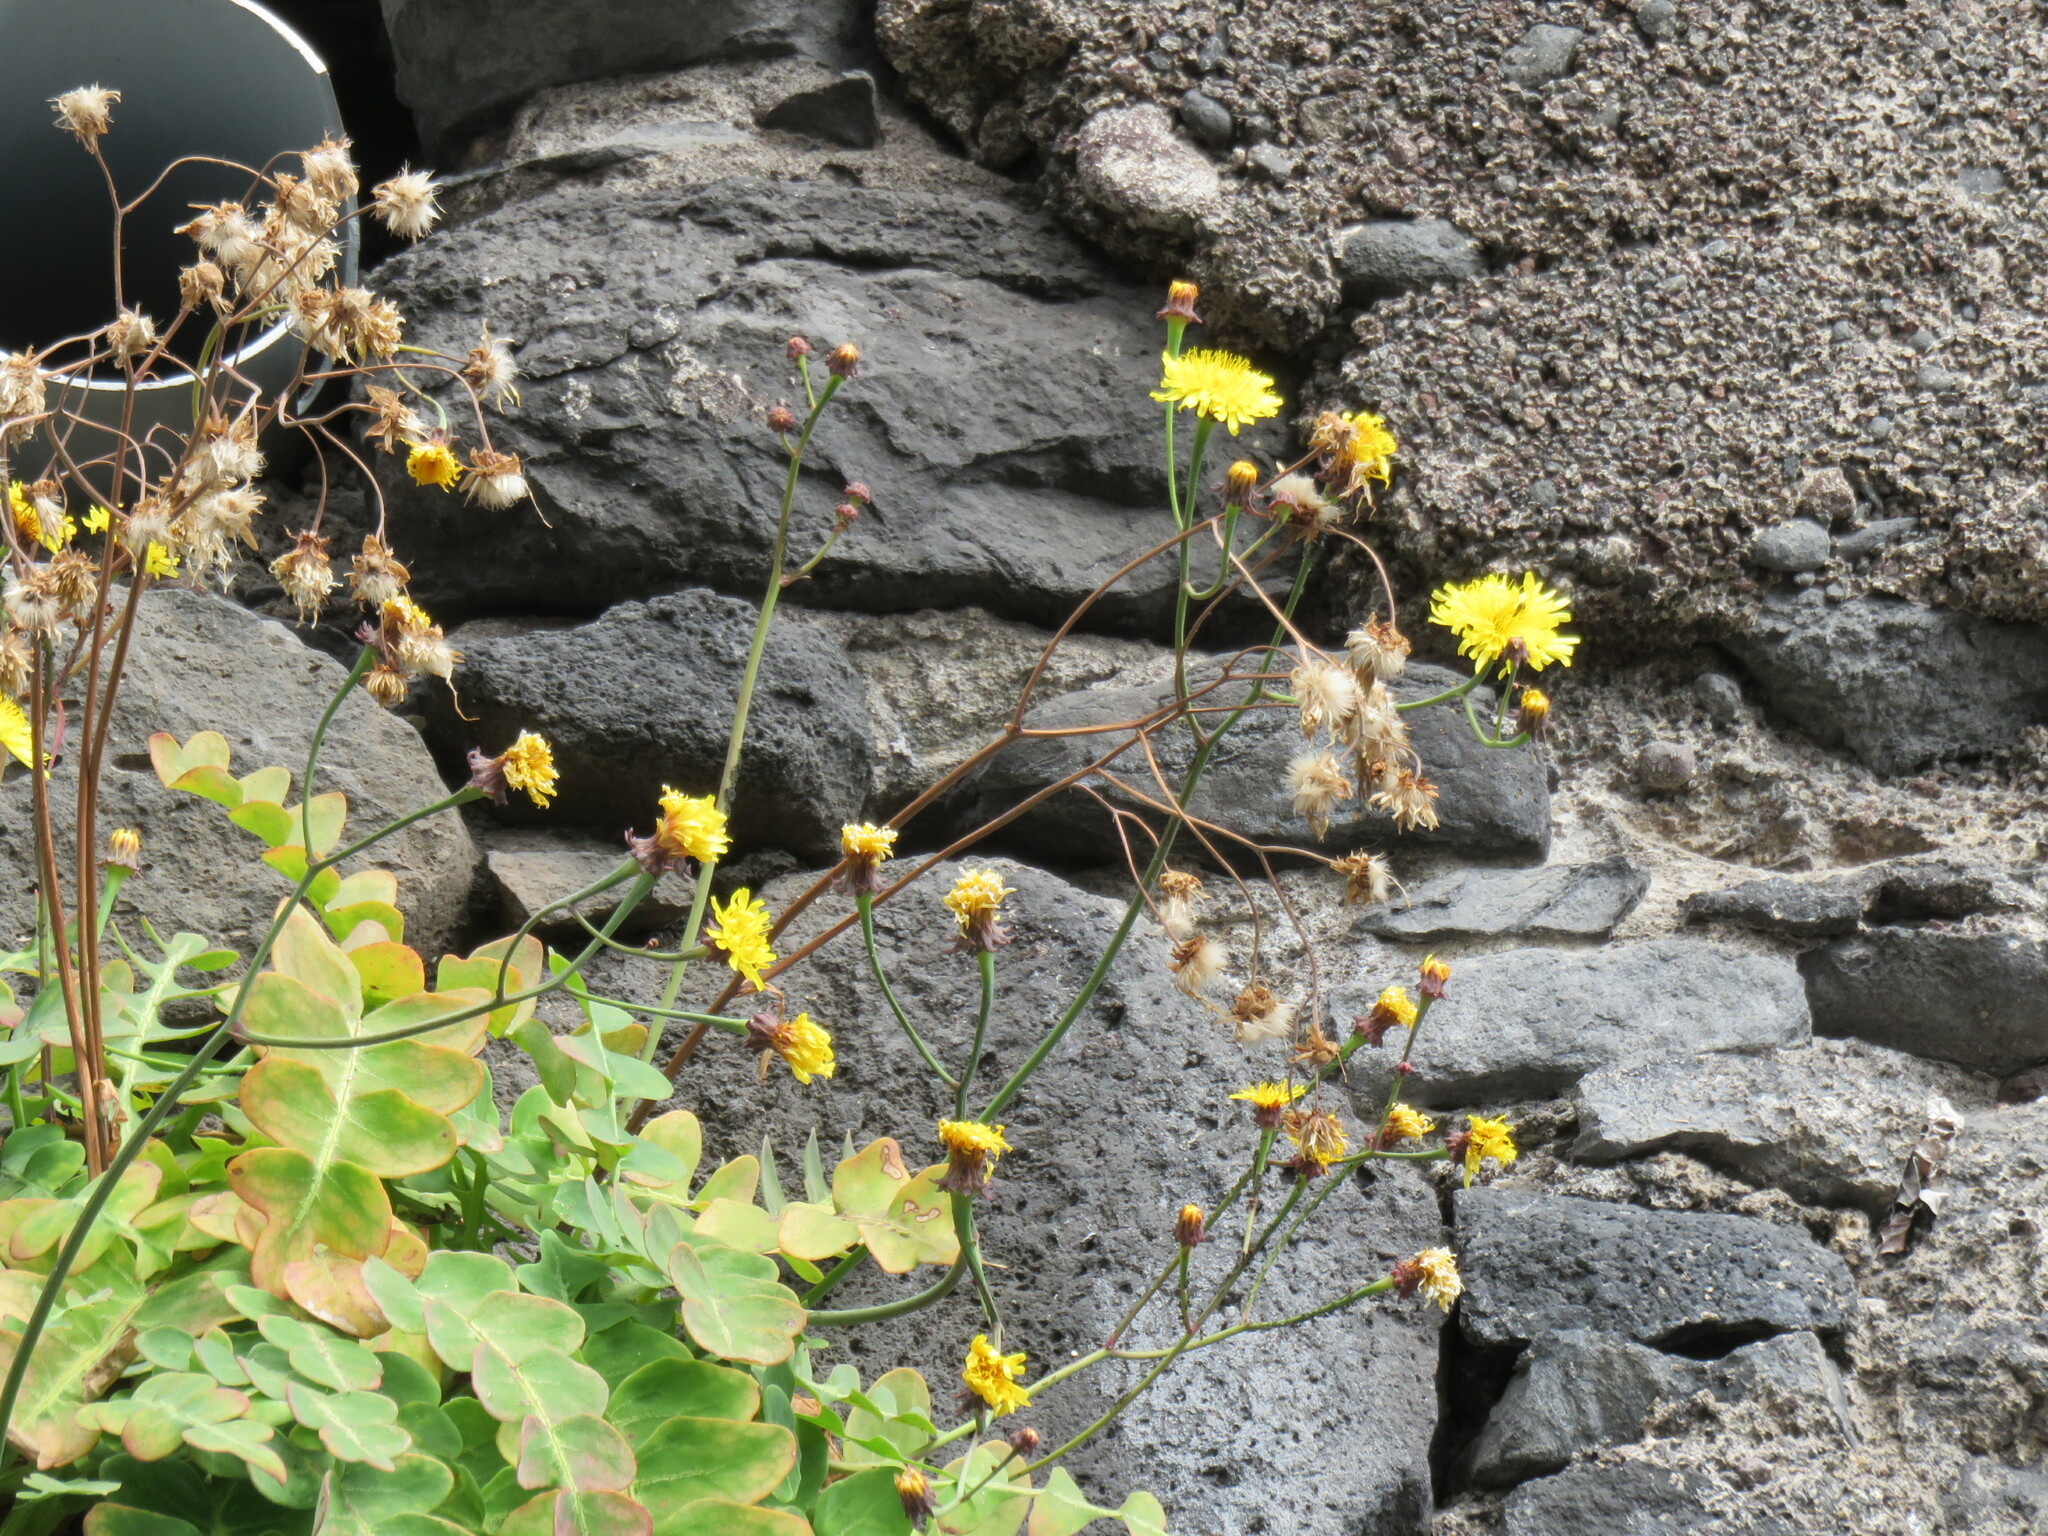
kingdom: Plantae
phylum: Tracheophyta
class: Magnoliopsida
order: Asterales
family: Asteraceae
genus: Sonchus
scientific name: Sonchus latifolius
